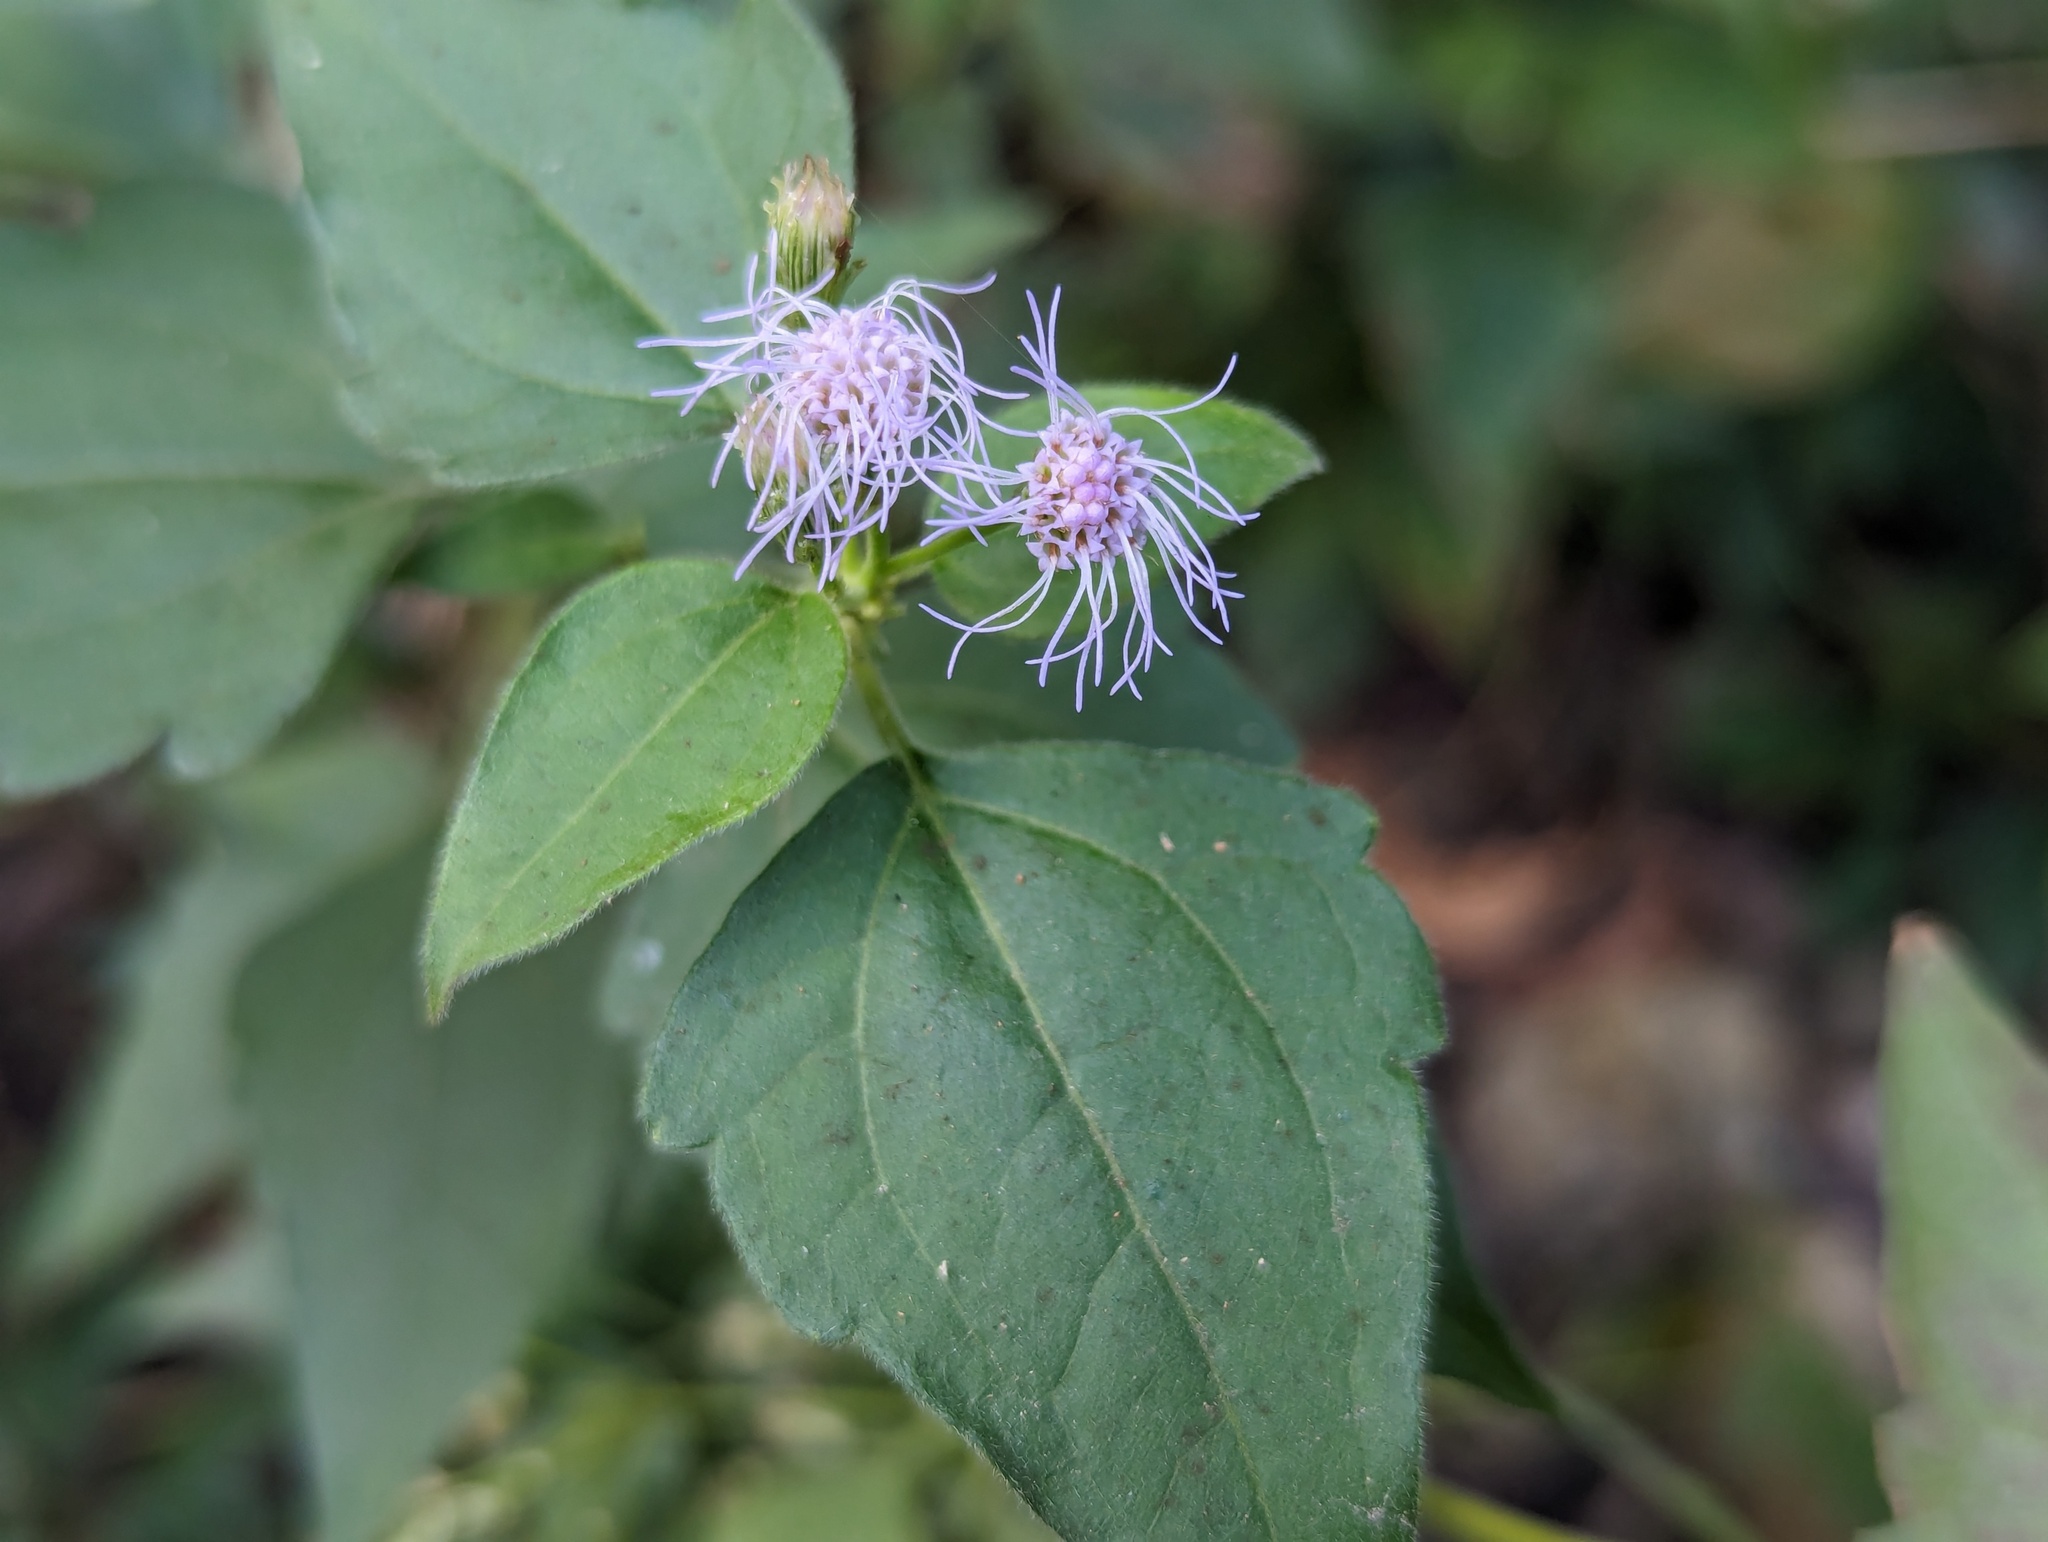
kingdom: Plantae
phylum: Tracheophyta
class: Magnoliopsida
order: Asterales
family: Asteraceae
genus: Chromolaena
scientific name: Chromolaena odorata
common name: Siamweed
